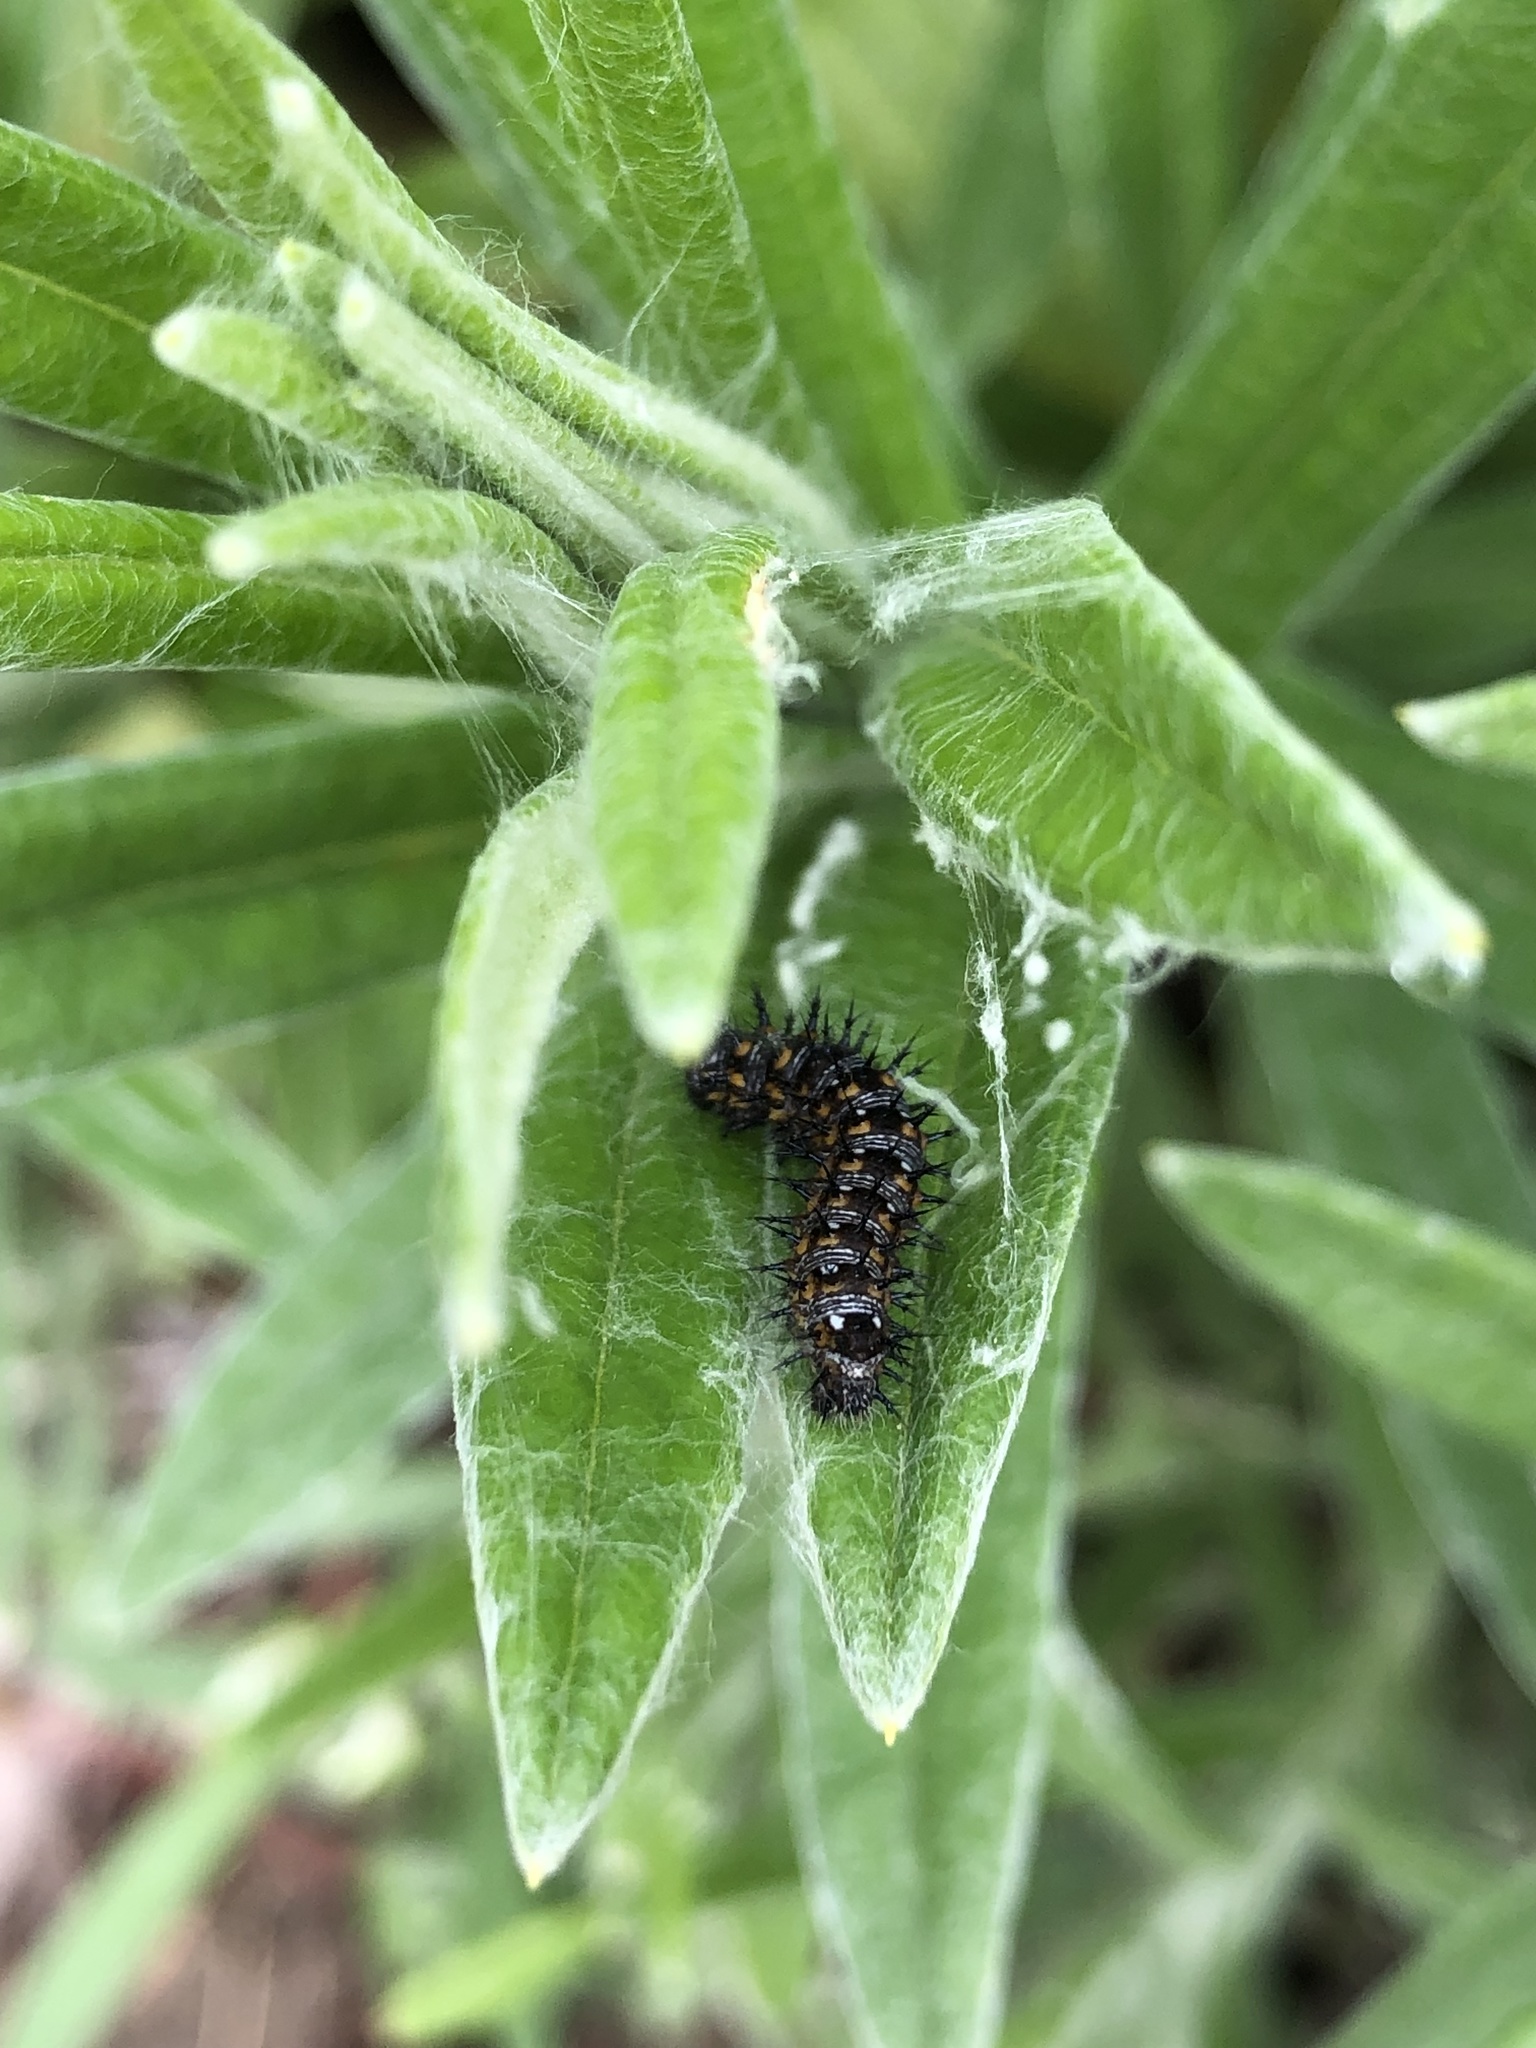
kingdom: Animalia
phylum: Arthropoda
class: Insecta
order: Lepidoptera
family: Nymphalidae
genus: Vanessa
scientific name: Vanessa virginiensis
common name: American lady
